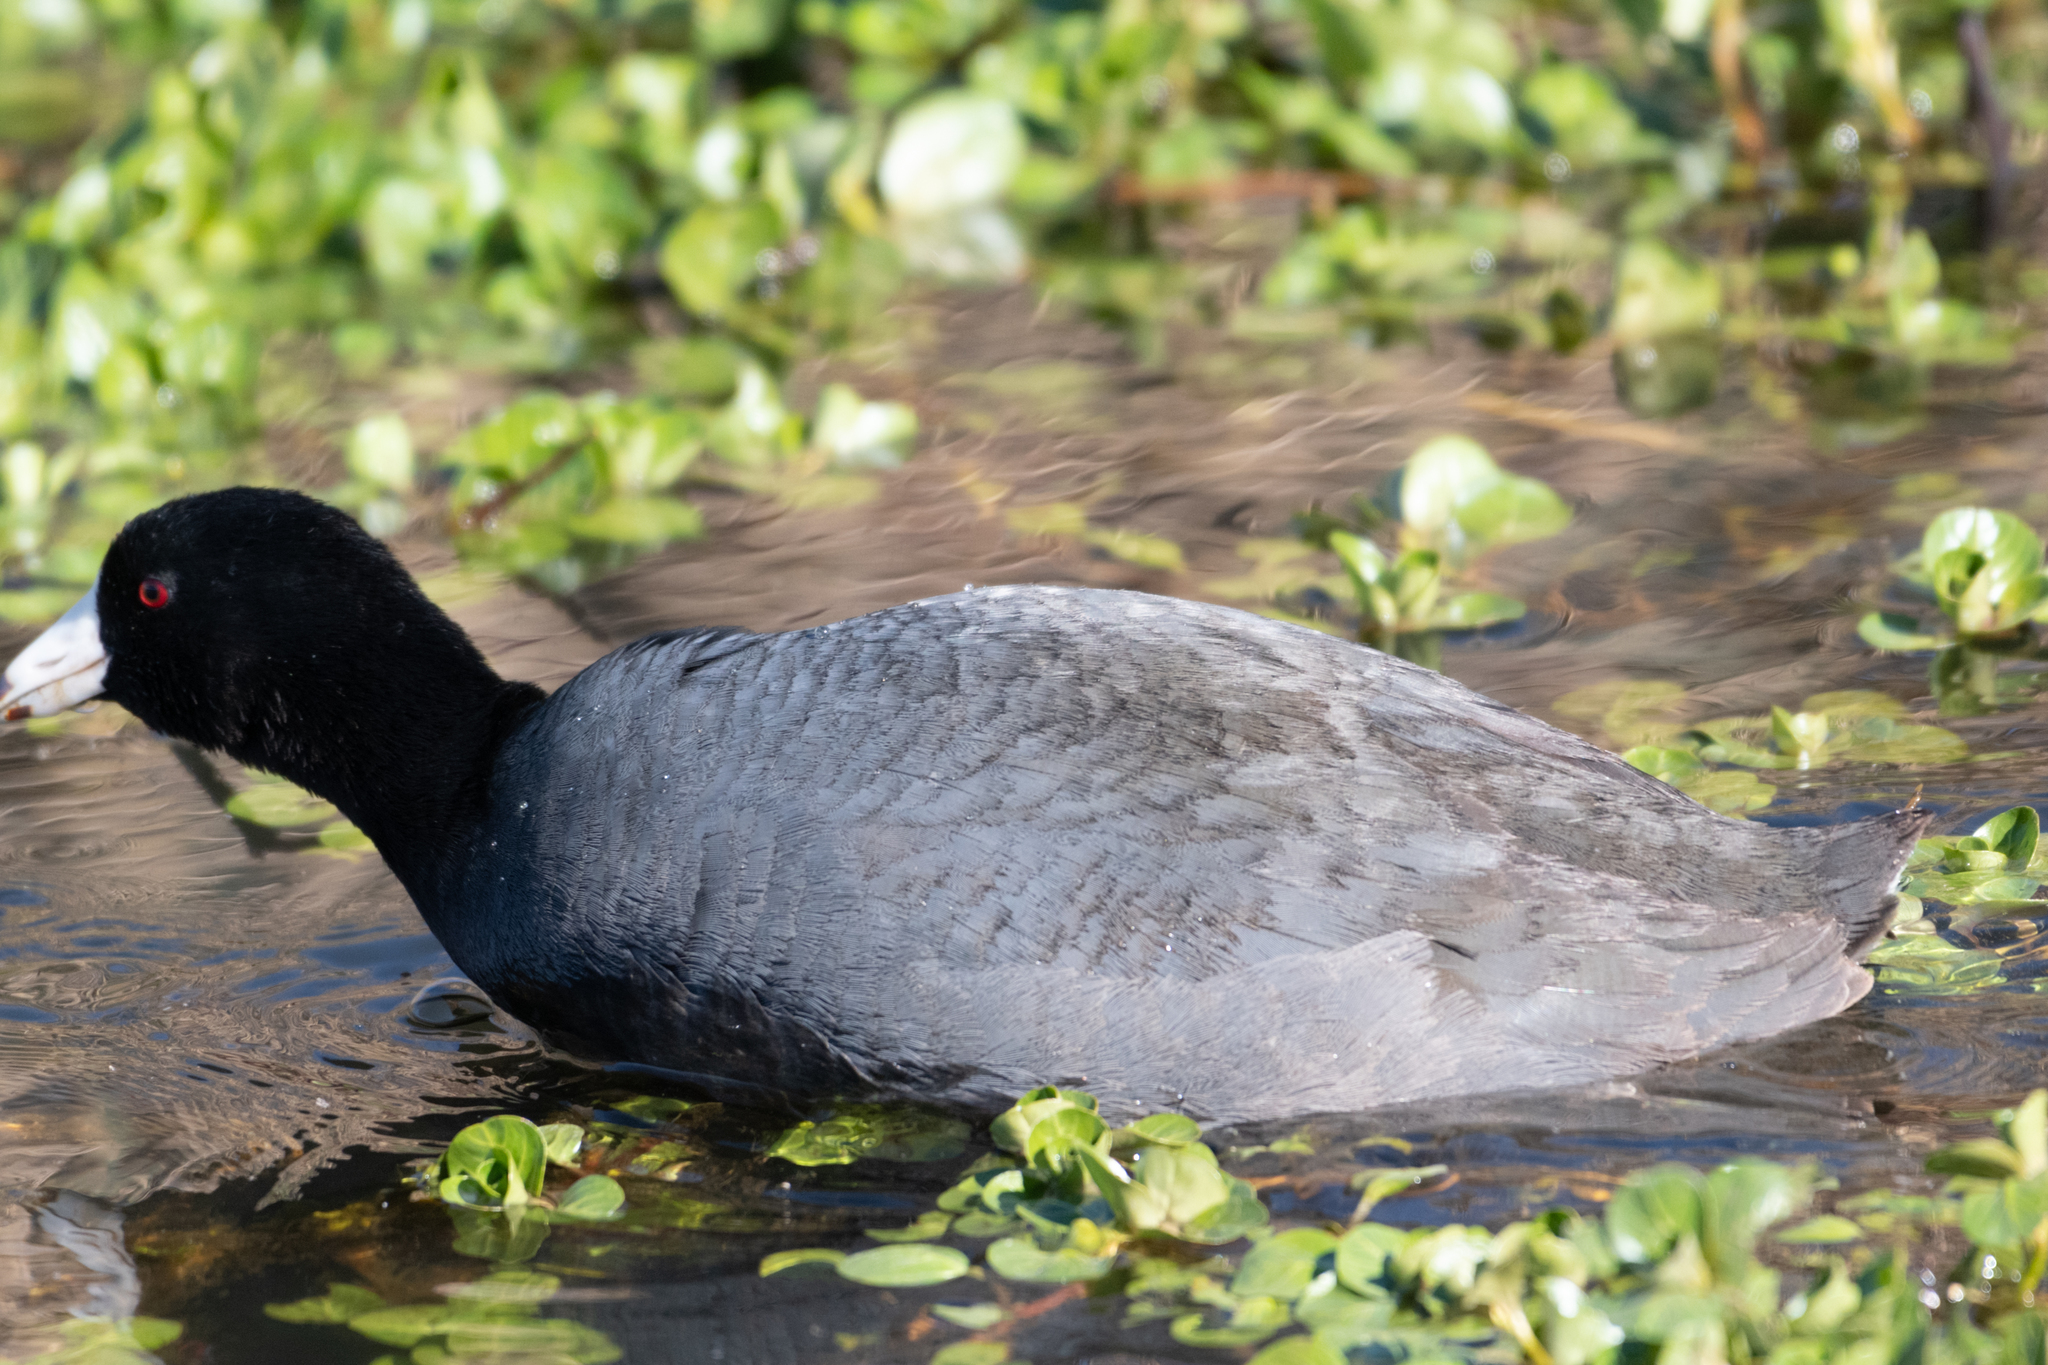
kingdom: Animalia
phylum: Chordata
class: Aves
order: Gruiformes
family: Rallidae
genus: Fulica
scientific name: Fulica americana
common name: American coot
